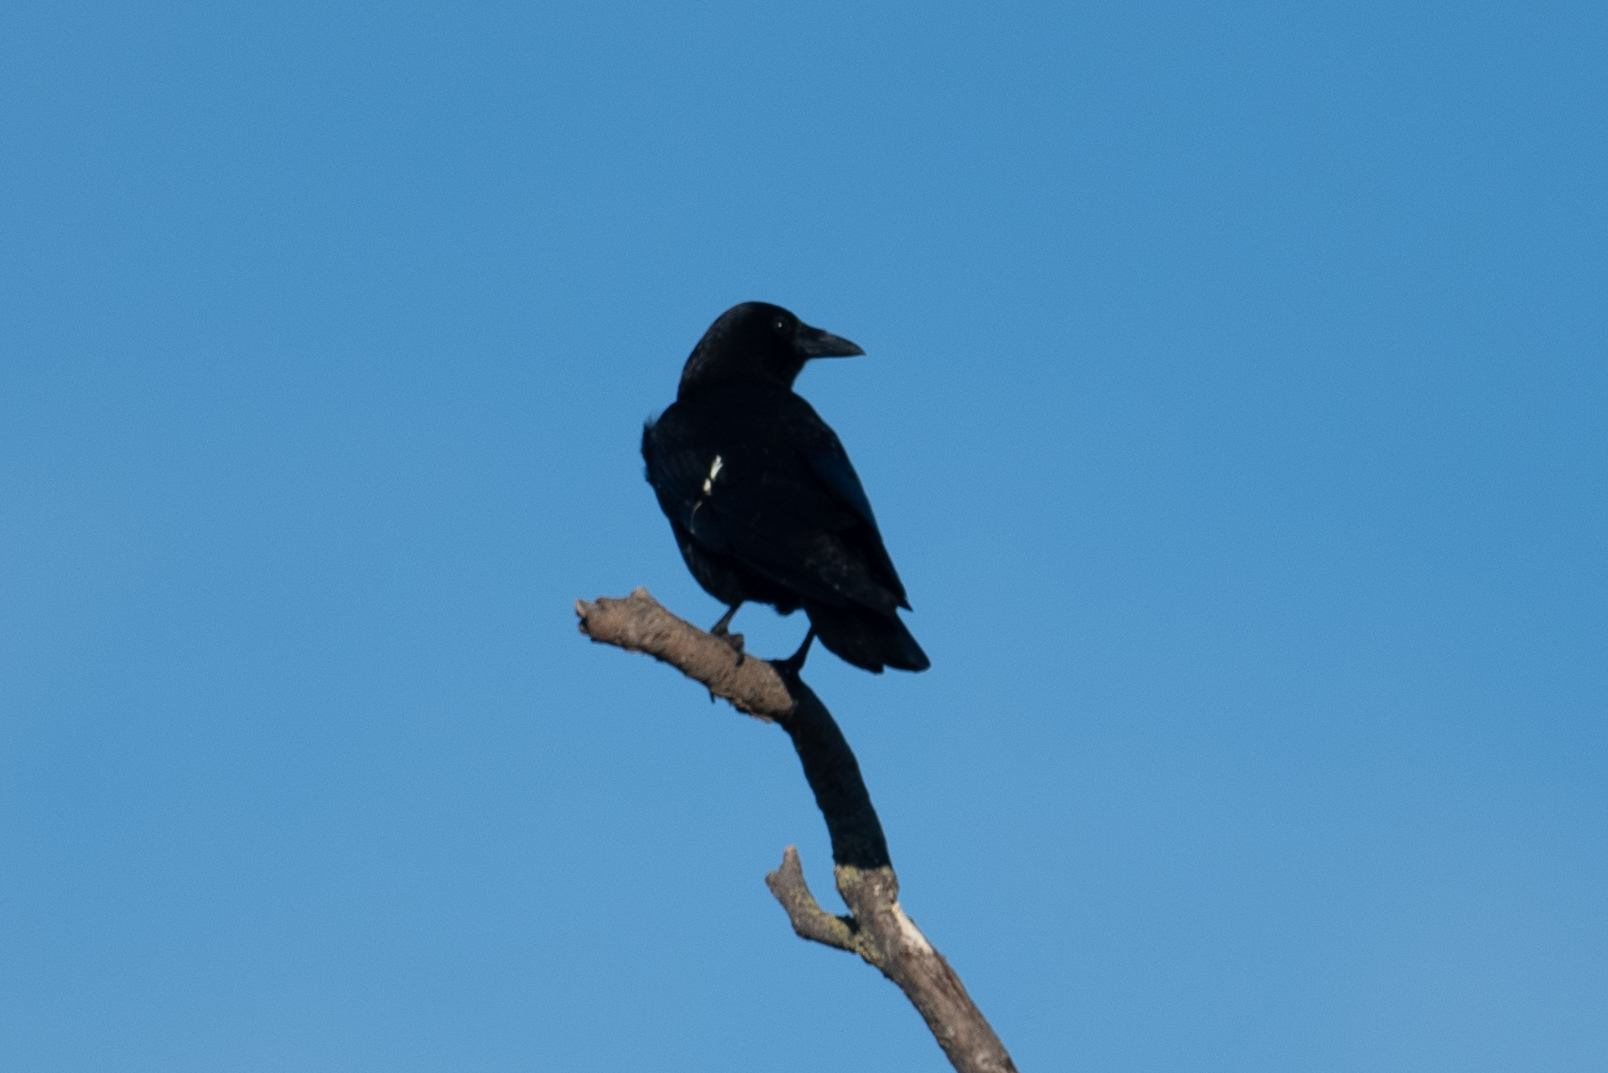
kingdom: Animalia
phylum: Chordata
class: Aves
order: Passeriformes
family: Corvidae
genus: Corvus
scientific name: Corvus brachyrhynchos
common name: American crow
